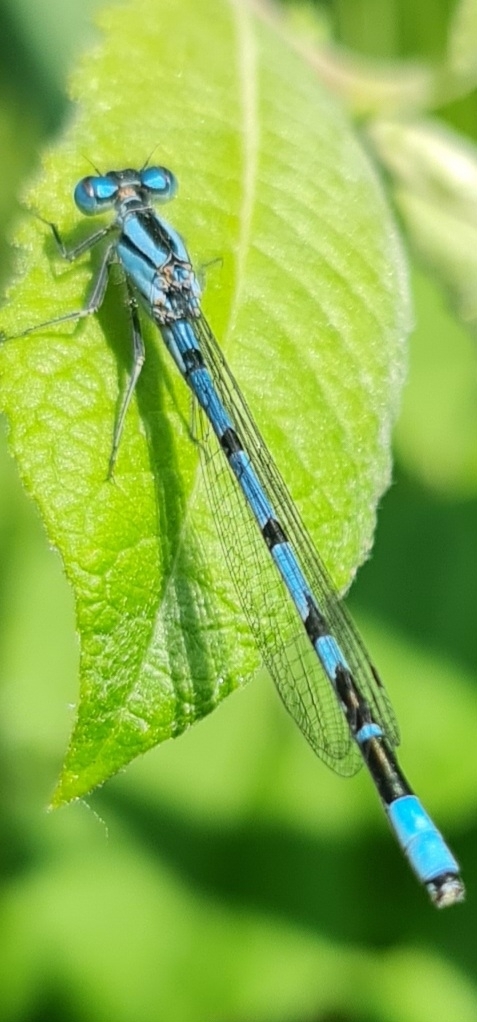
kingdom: Animalia
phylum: Arthropoda
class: Insecta
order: Odonata
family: Coenagrionidae
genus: Enallagma
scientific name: Enallagma cyathigerum
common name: Common blue damselfly
